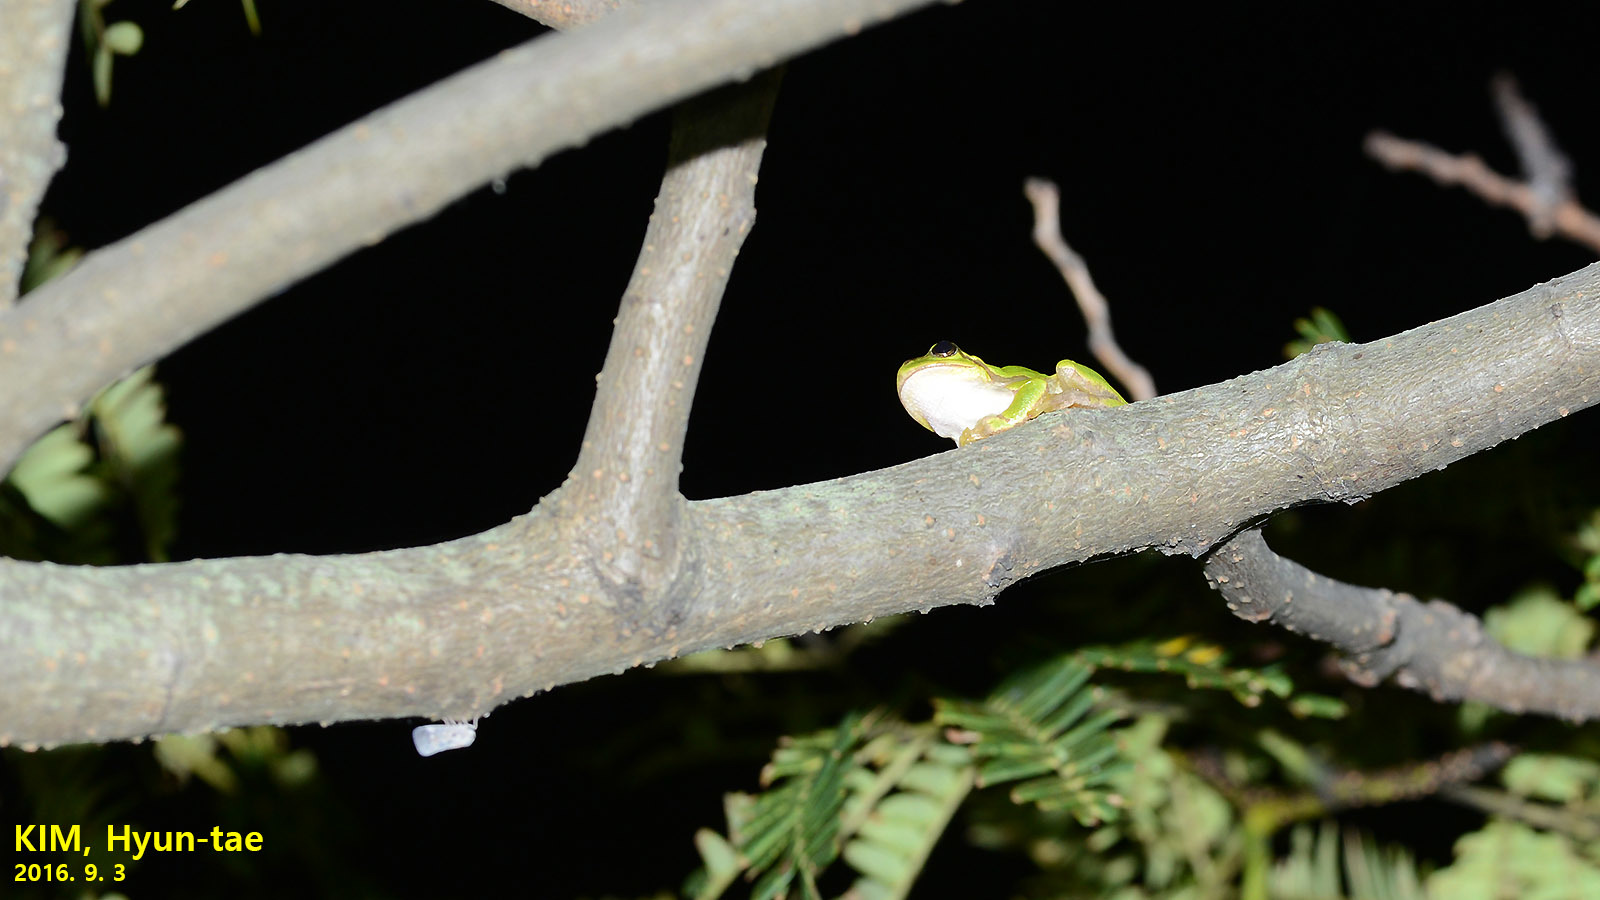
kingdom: Animalia
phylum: Chordata
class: Amphibia
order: Anura
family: Hylidae
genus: Dryophytes
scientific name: Dryophytes japonicus
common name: Japanese treefrog
